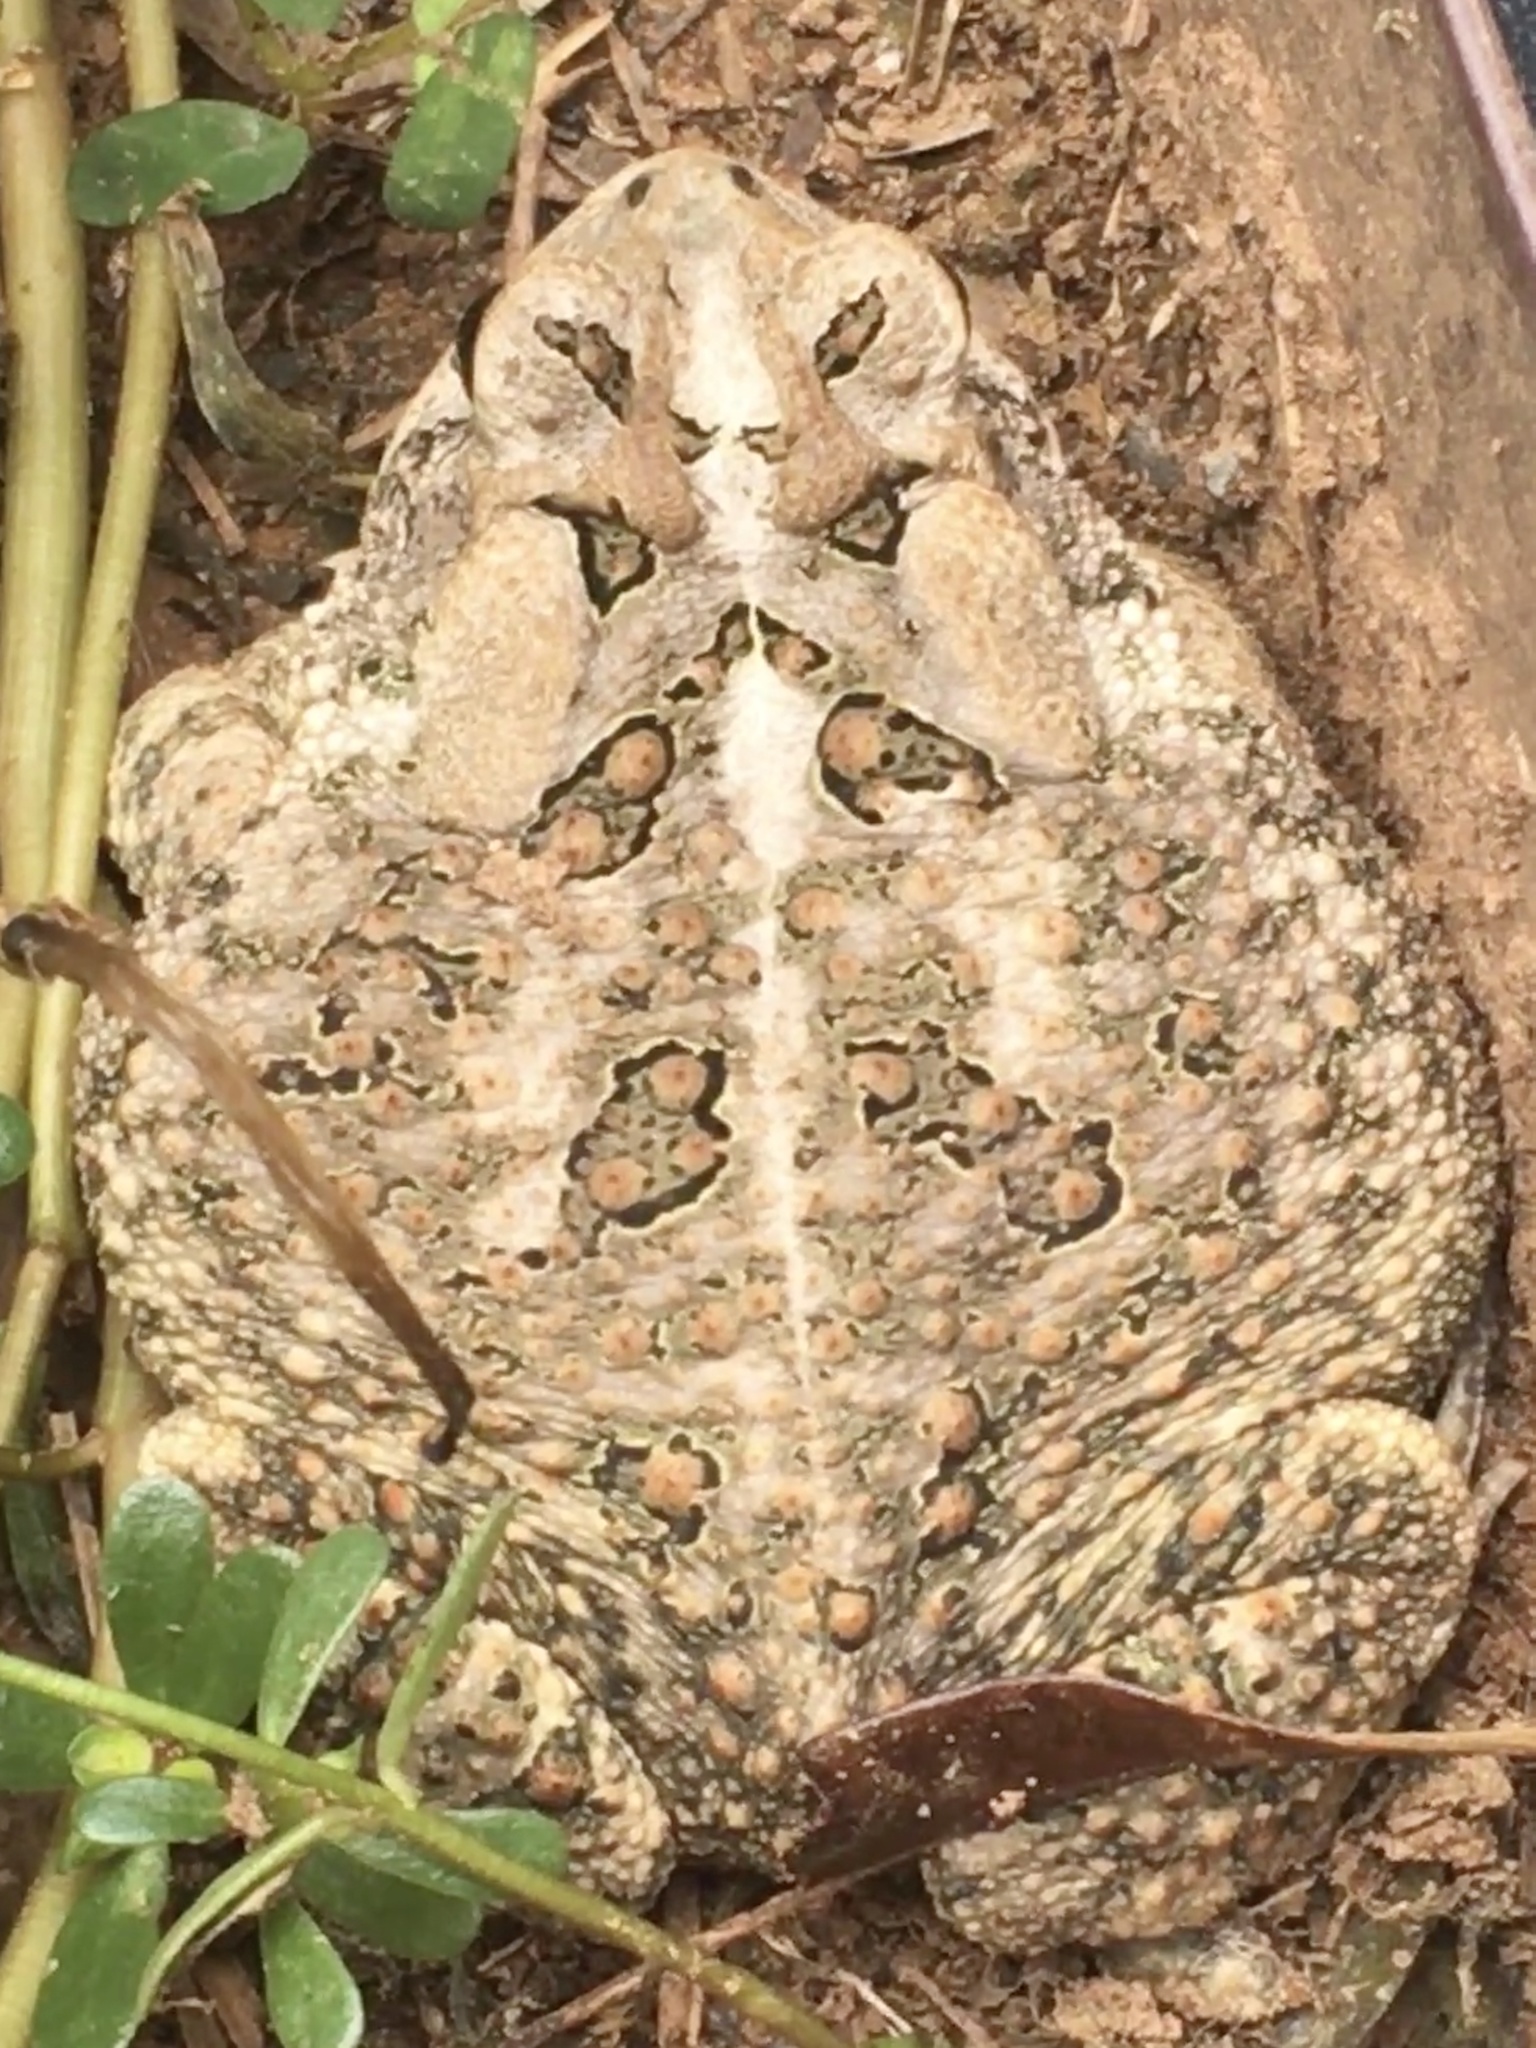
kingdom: Animalia
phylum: Chordata
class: Amphibia
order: Anura
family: Bufonidae
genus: Anaxyrus
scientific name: Anaxyrus terrestris
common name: Southern toad
